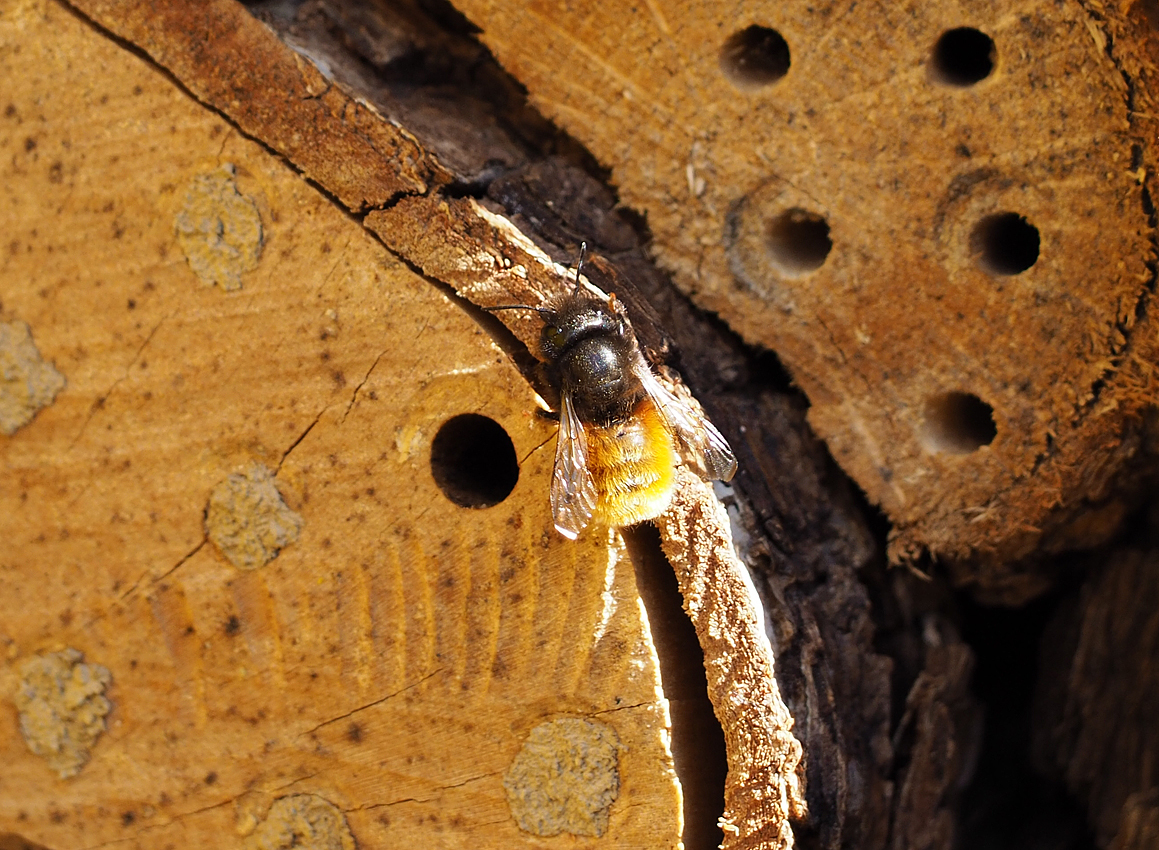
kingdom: Animalia
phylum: Arthropoda
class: Insecta
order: Hymenoptera
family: Megachilidae
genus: Osmia
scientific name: Osmia cornuta
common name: Mason bee
